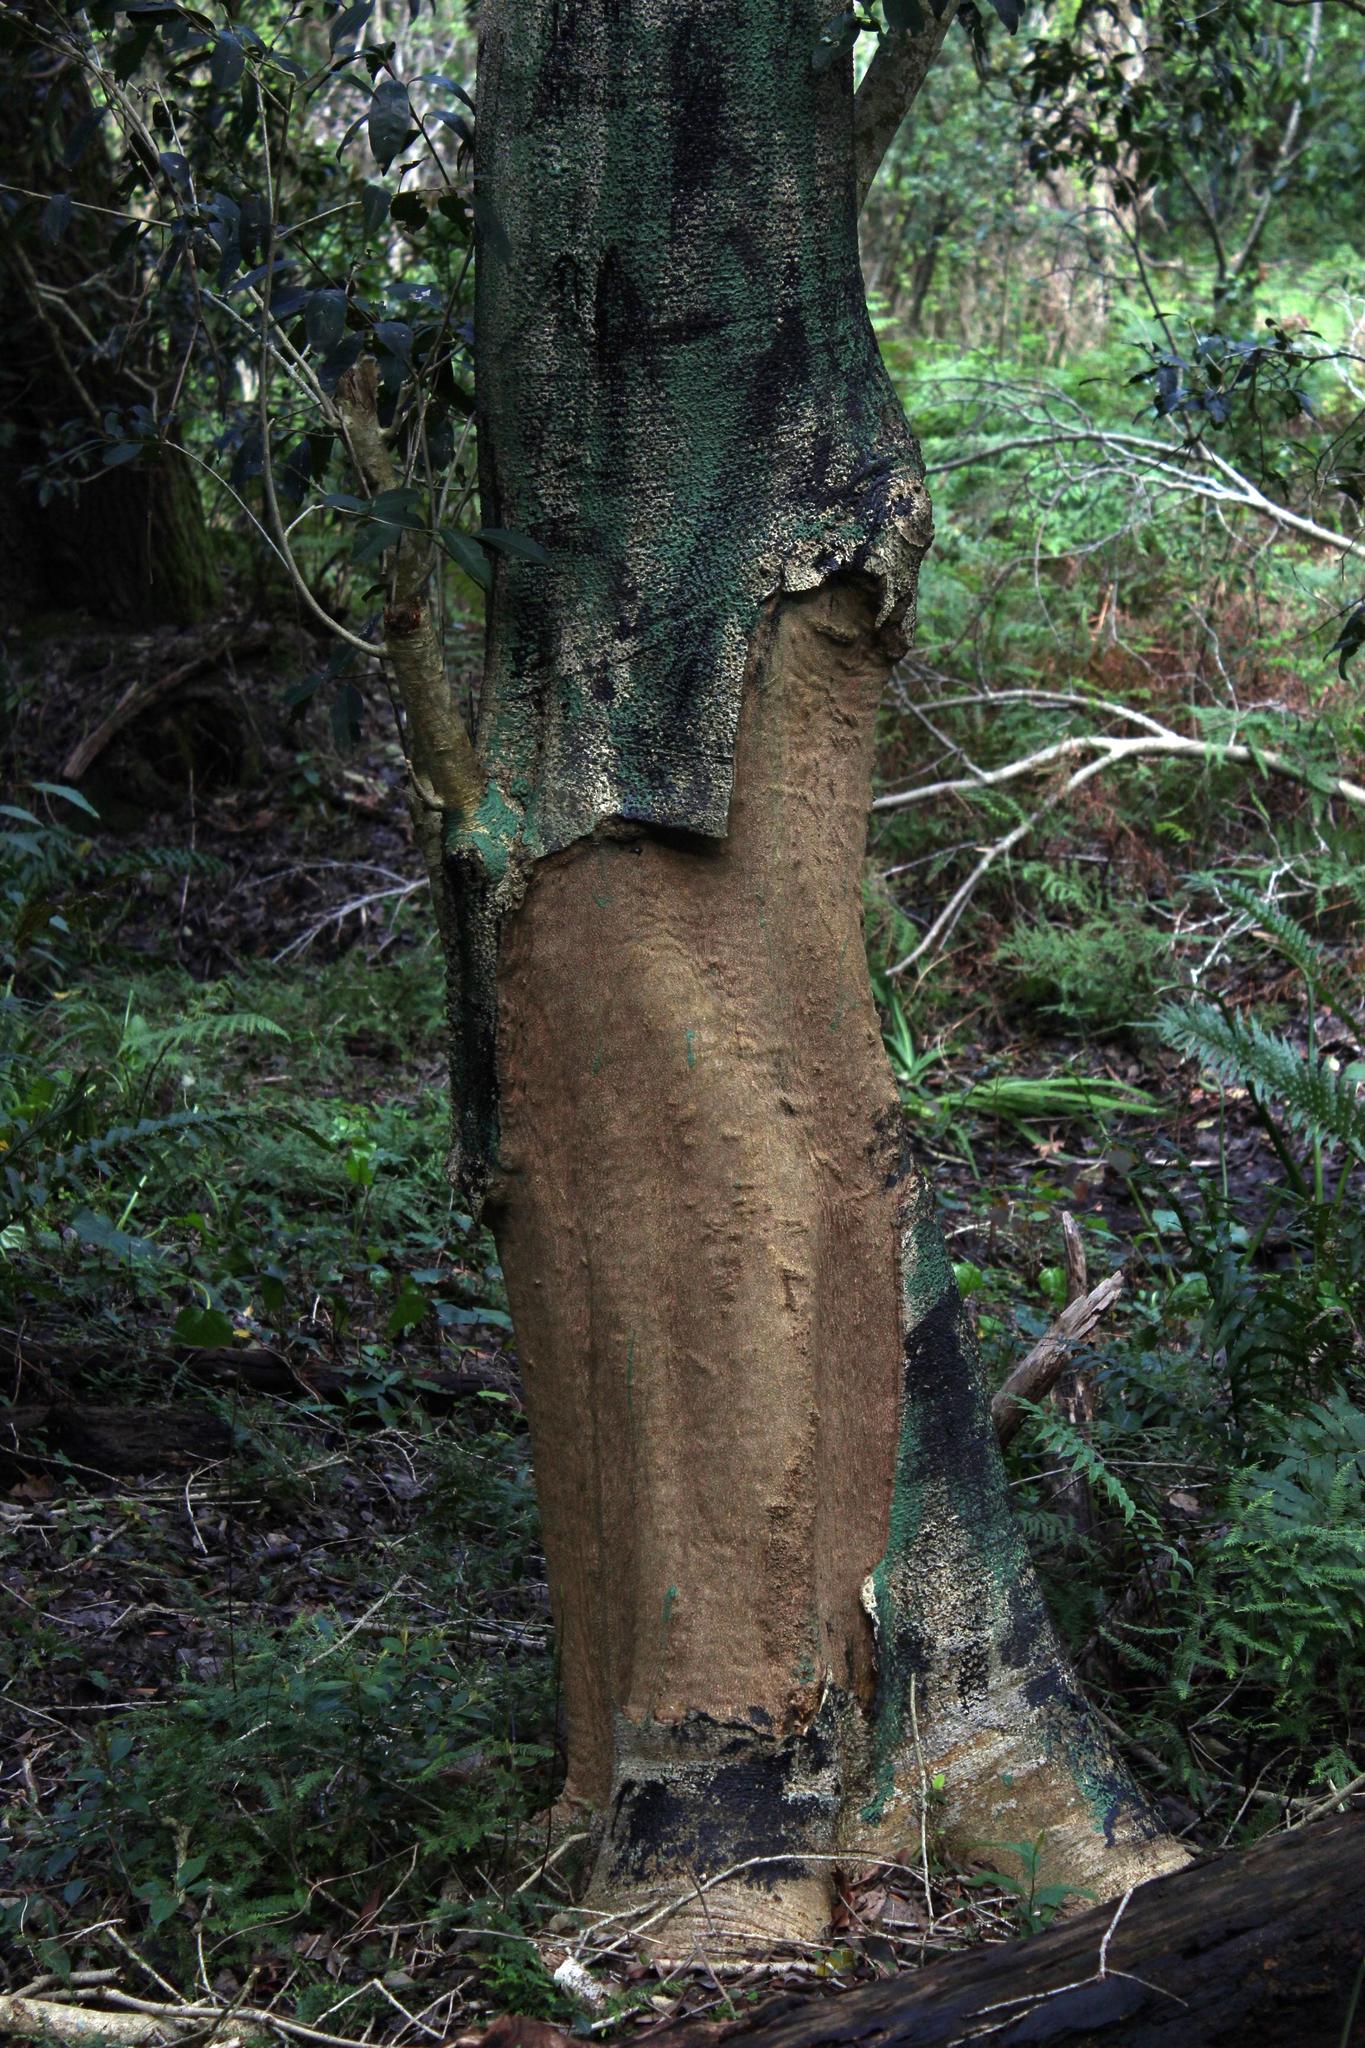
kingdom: Plantae
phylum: Tracheophyta
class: Magnoliopsida
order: Aquifoliales
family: Aquifoliaceae
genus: Ilex
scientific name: Ilex mitis
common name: African holly
